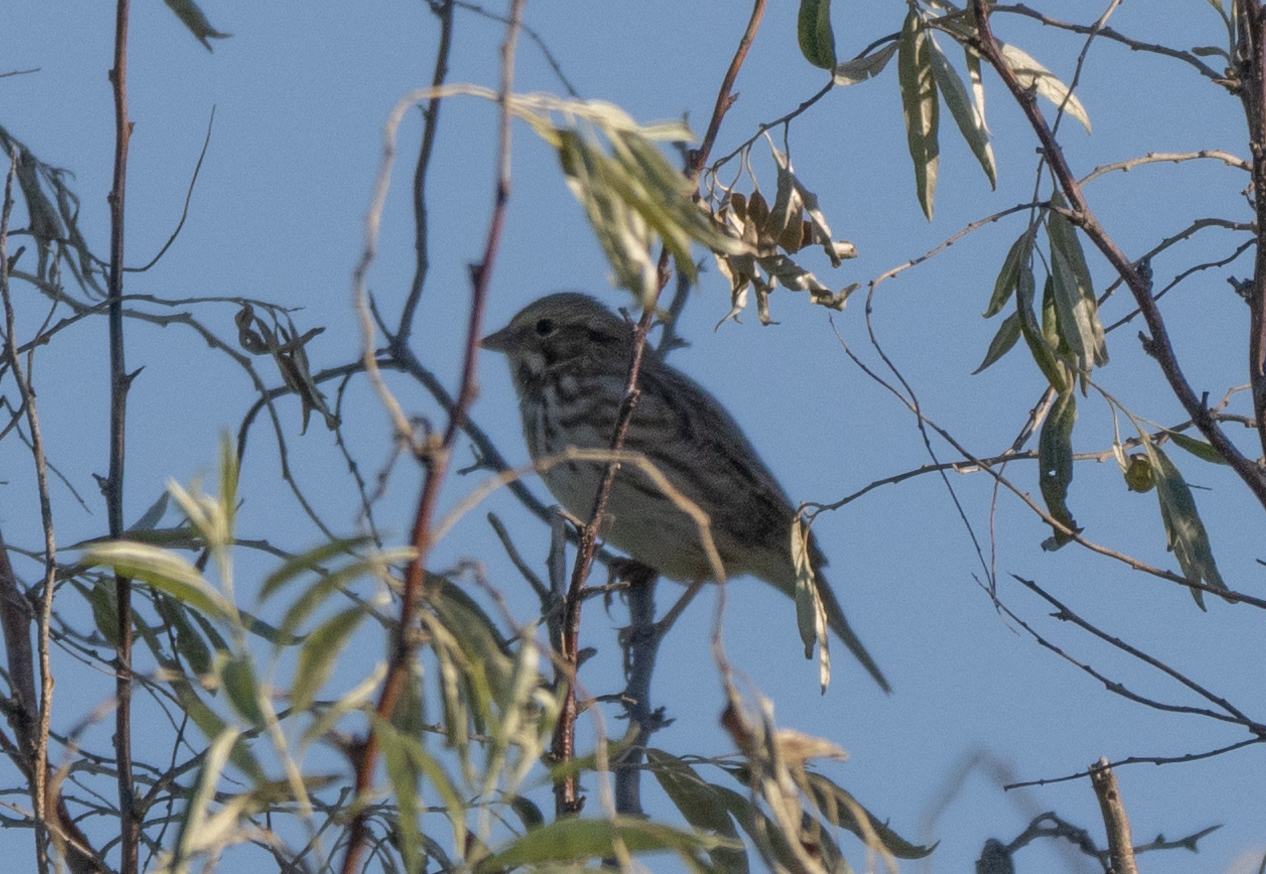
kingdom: Animalia
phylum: Chordata
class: Aves
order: Passeriformes
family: Passerellidae
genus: Passerculus
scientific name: Passerculus sandwichensis
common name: Savannah sparrow
